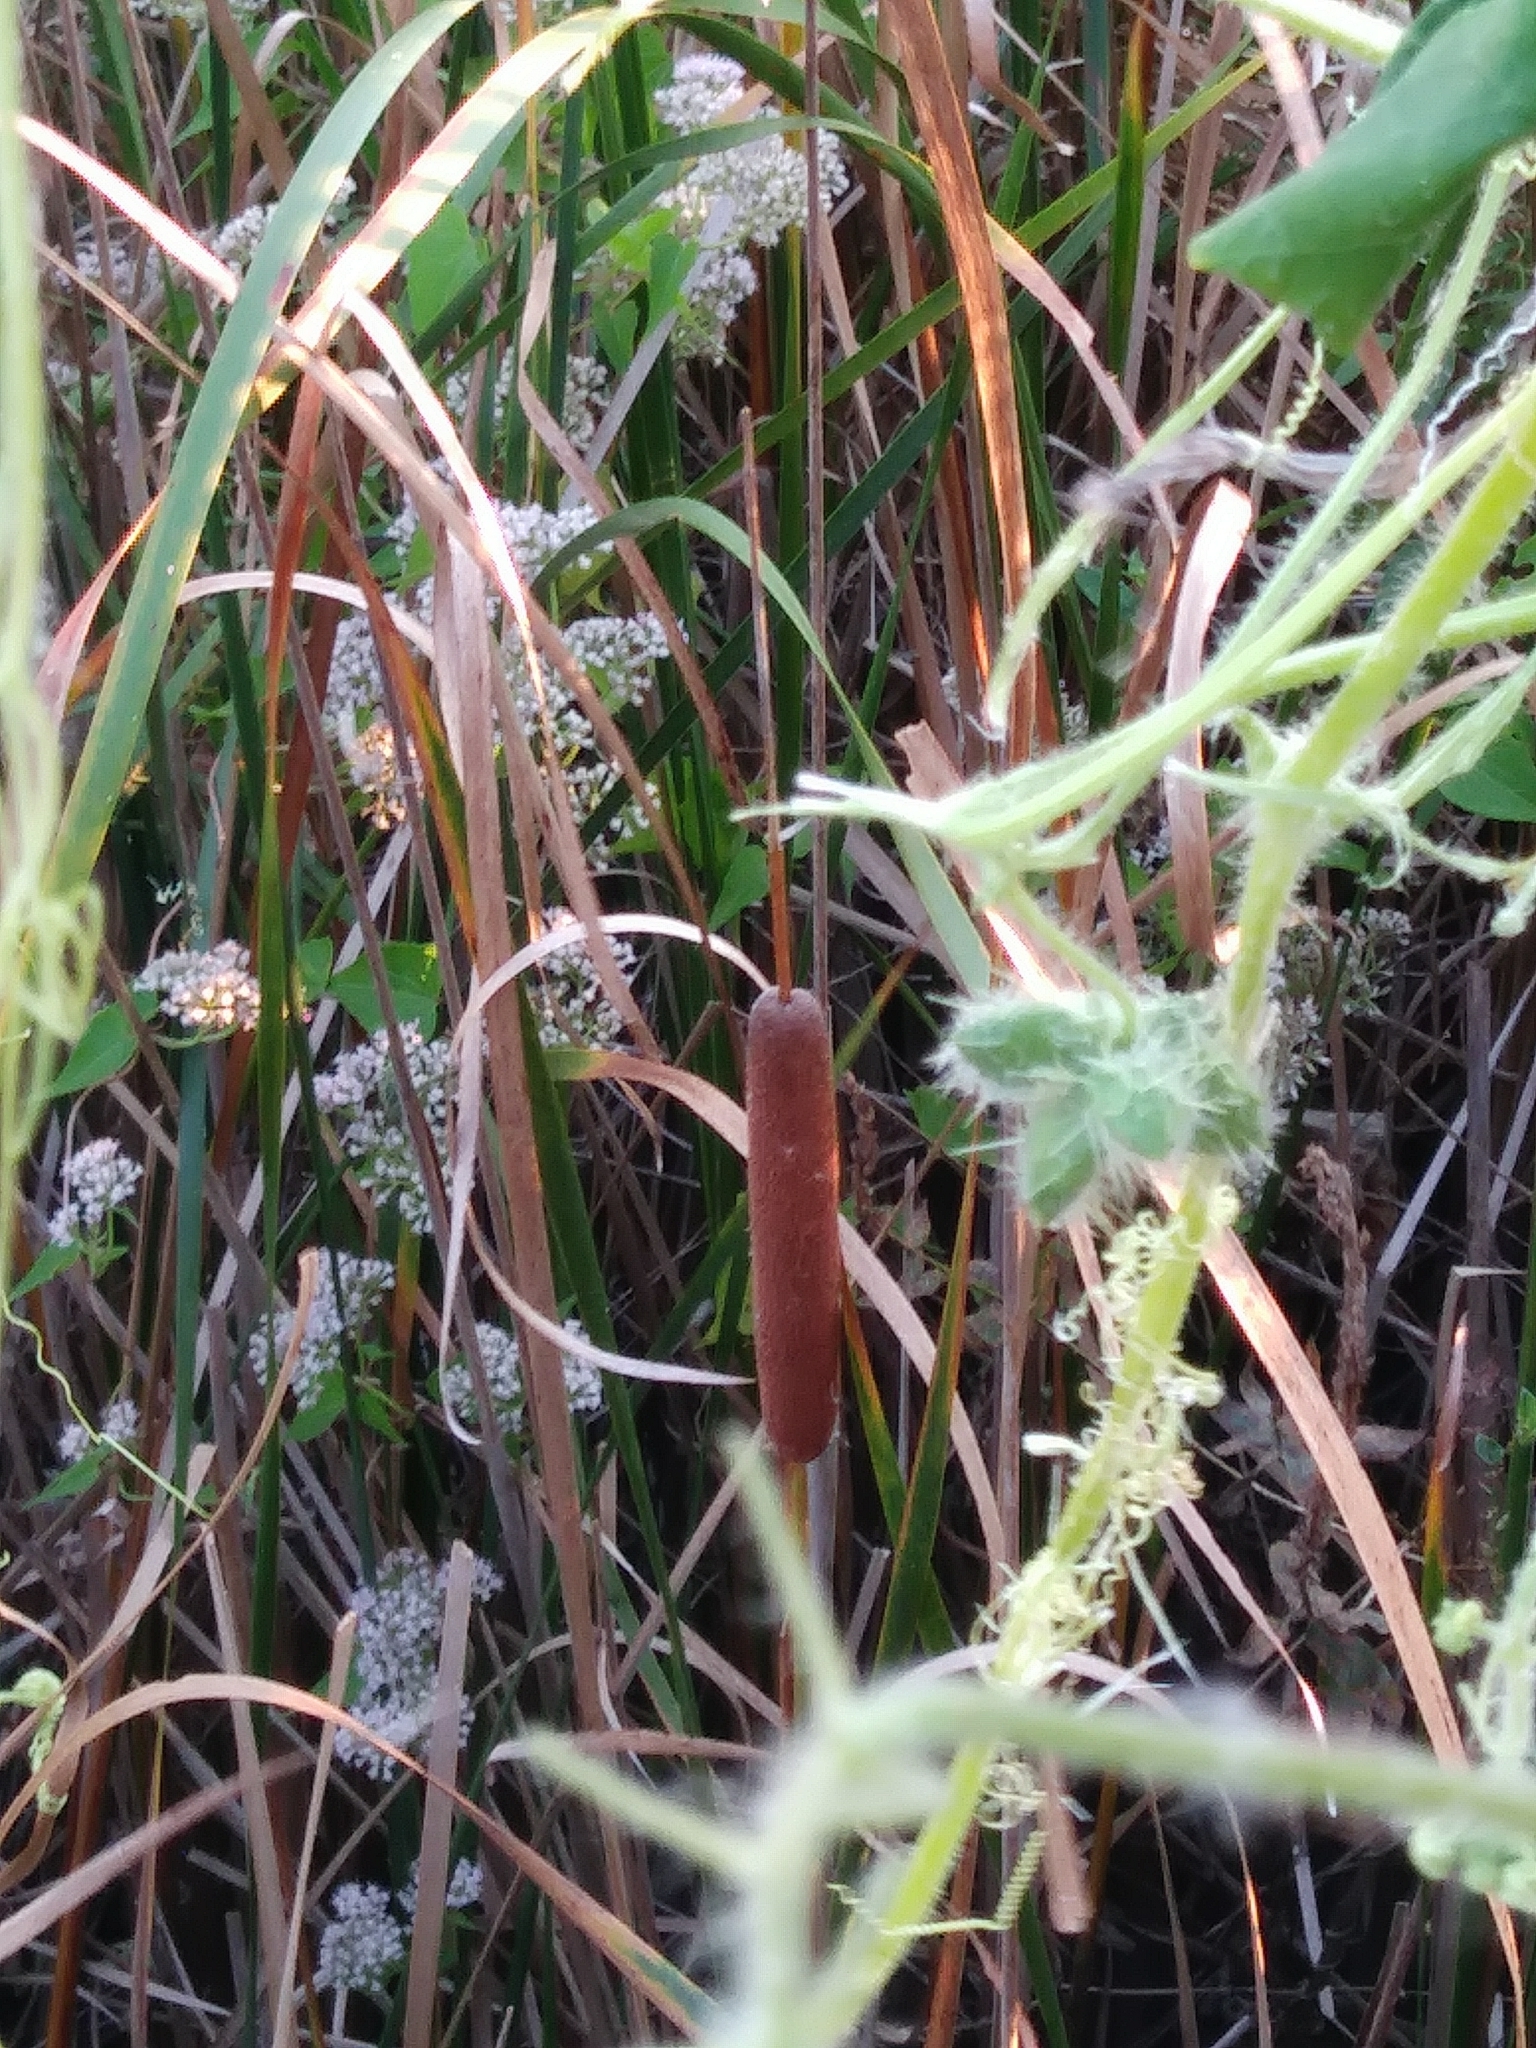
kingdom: Plantae
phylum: Tracheophyta
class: Magnoliopsida
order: Cucurbitales
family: Cucurbitaceae
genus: Sicyos
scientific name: Sicyos angulatus
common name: Angled burr cucumber
